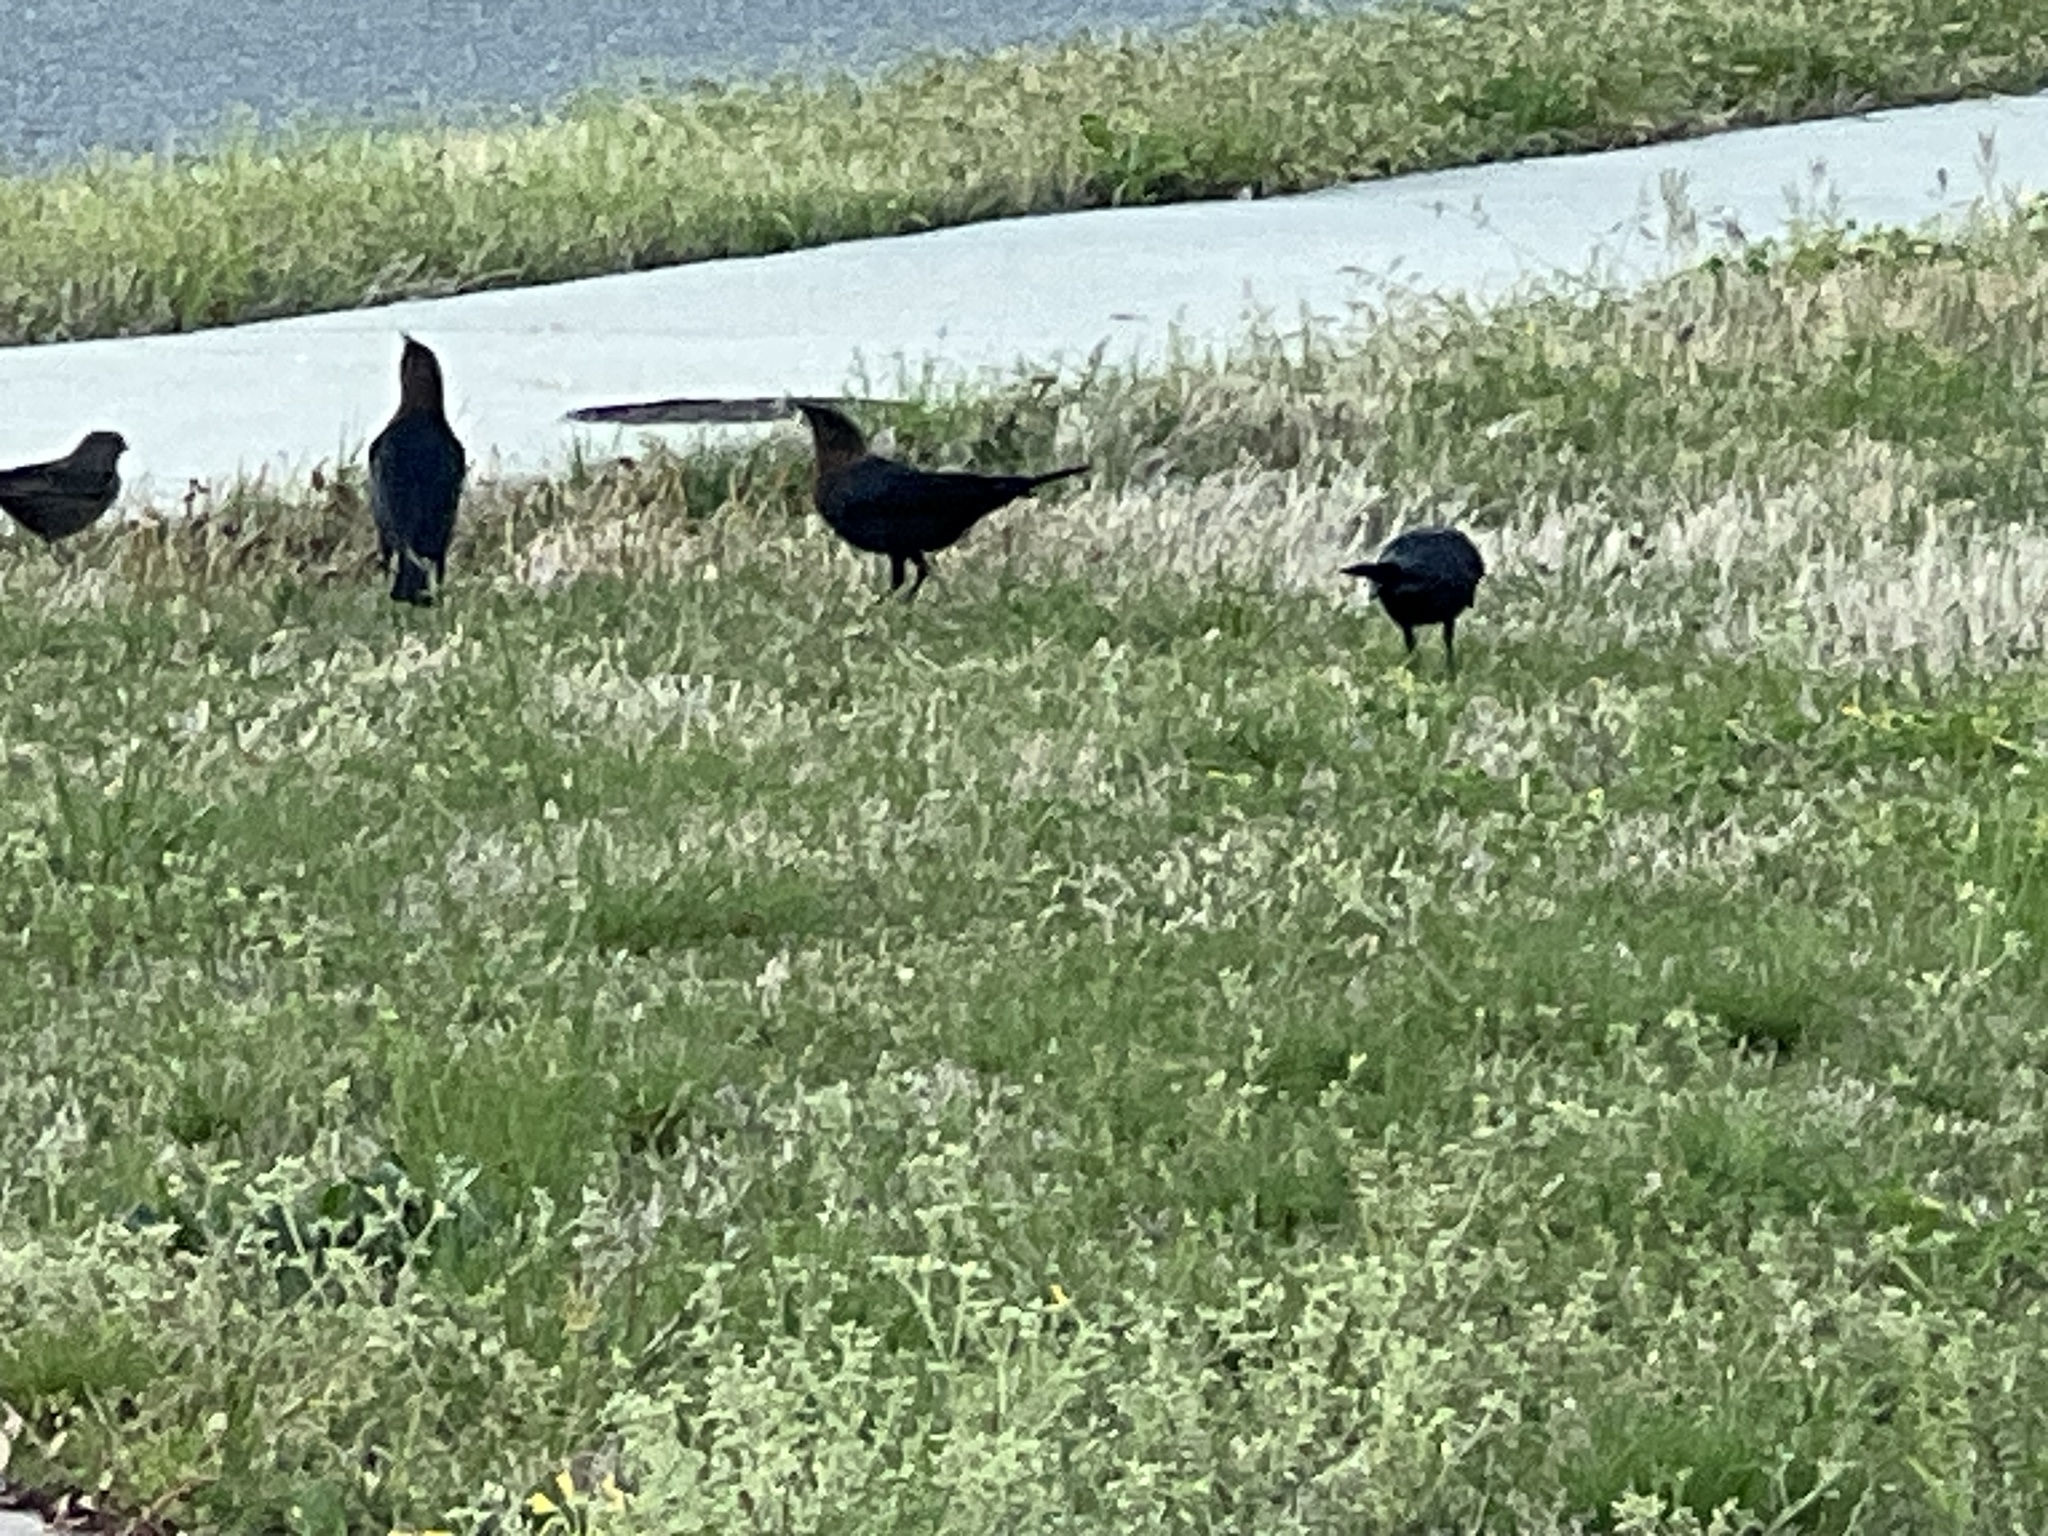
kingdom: Animalia
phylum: Chordata
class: Aves
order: Passeriformes
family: Icteridae
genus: Molothrus
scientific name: Molothrus ater
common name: Brown-headed cowbird
